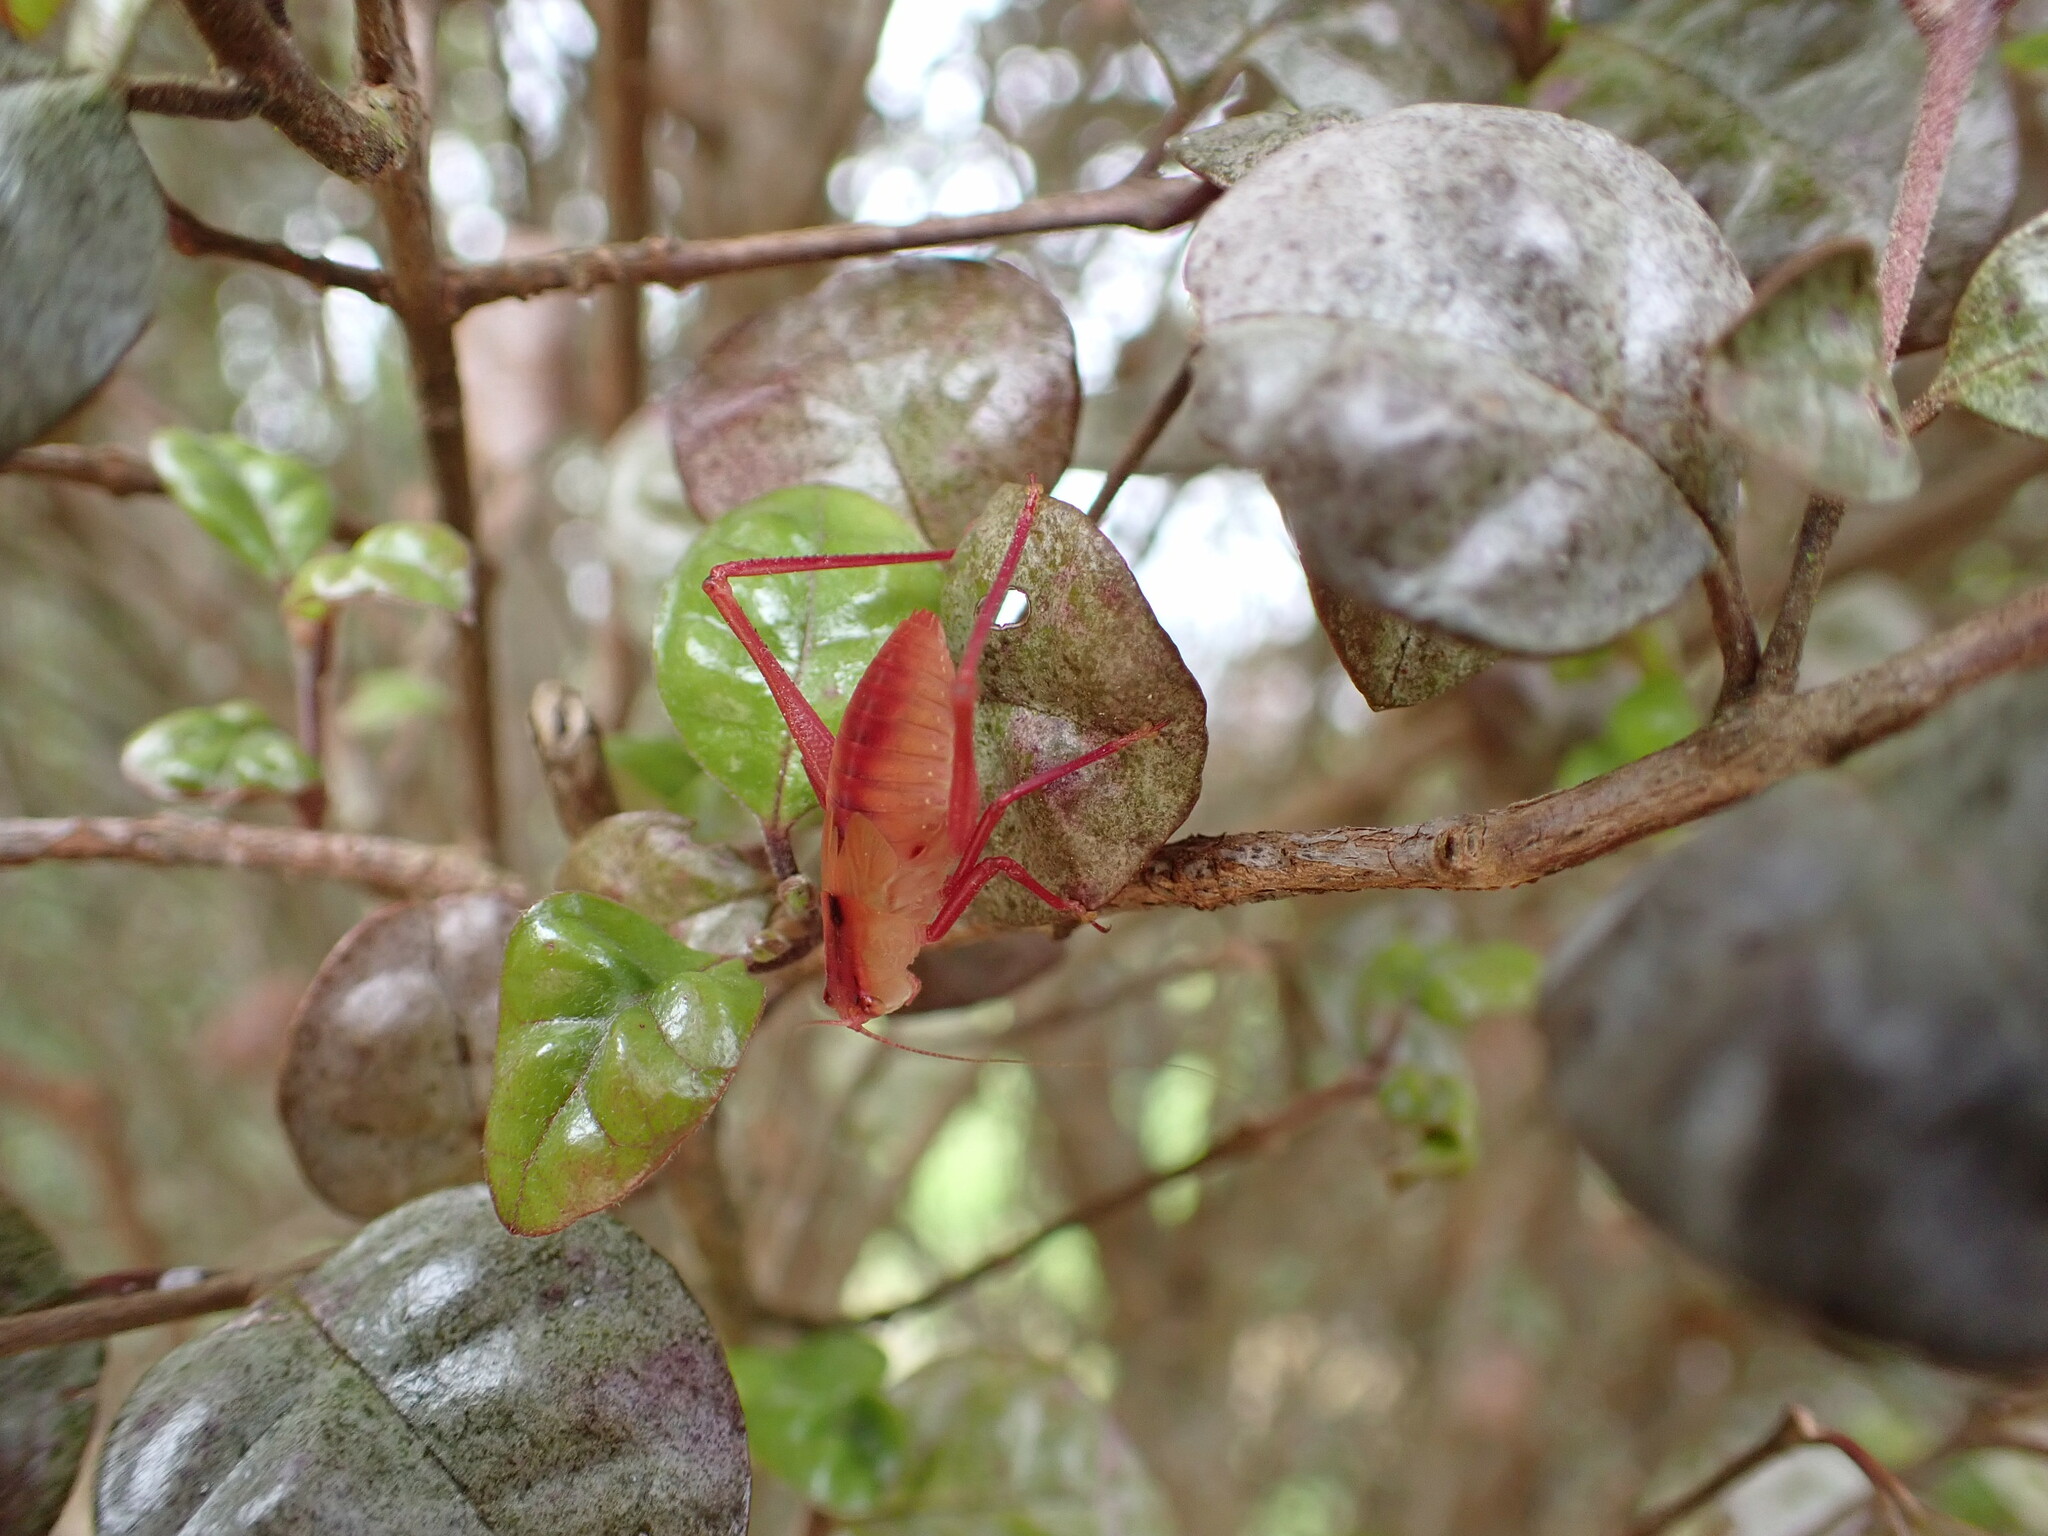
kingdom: Animalia
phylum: Arthropoda
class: Insecta
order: Orthoptera
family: Tettigoniidae
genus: Caedicia
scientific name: Caedicia simplex
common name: Common garden katydid
